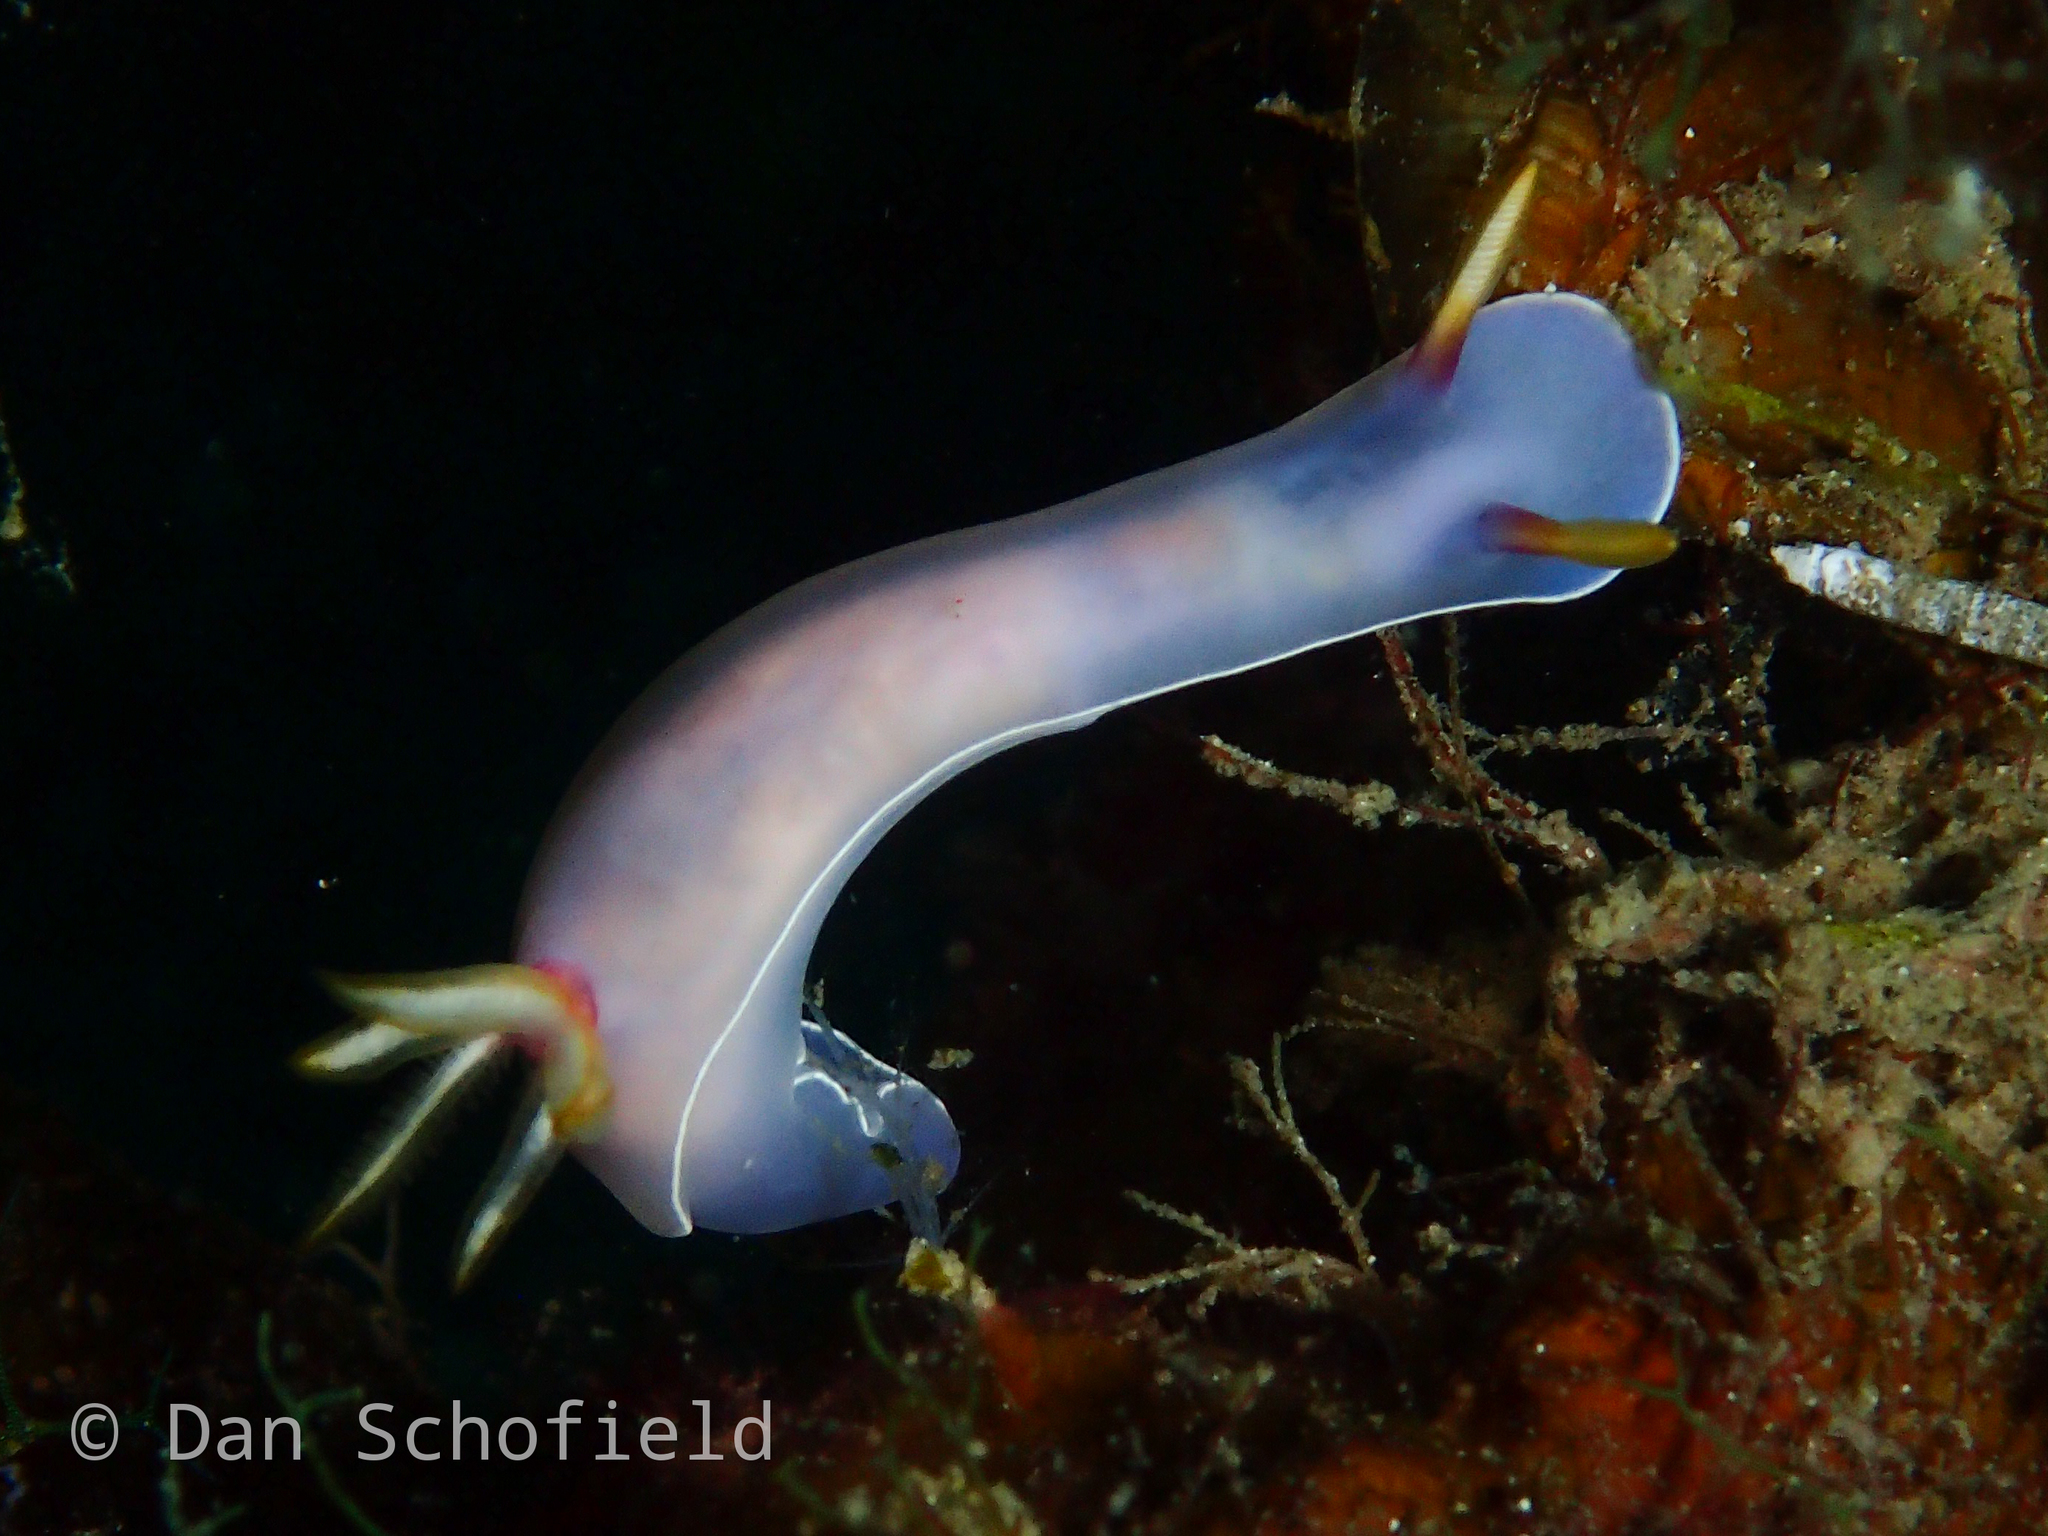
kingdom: Animalia
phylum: Mollusca
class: Gastropoda
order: Nudibranchia
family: Chromodorididae
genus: Hypselodoris
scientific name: Hypselodoris bullockii
